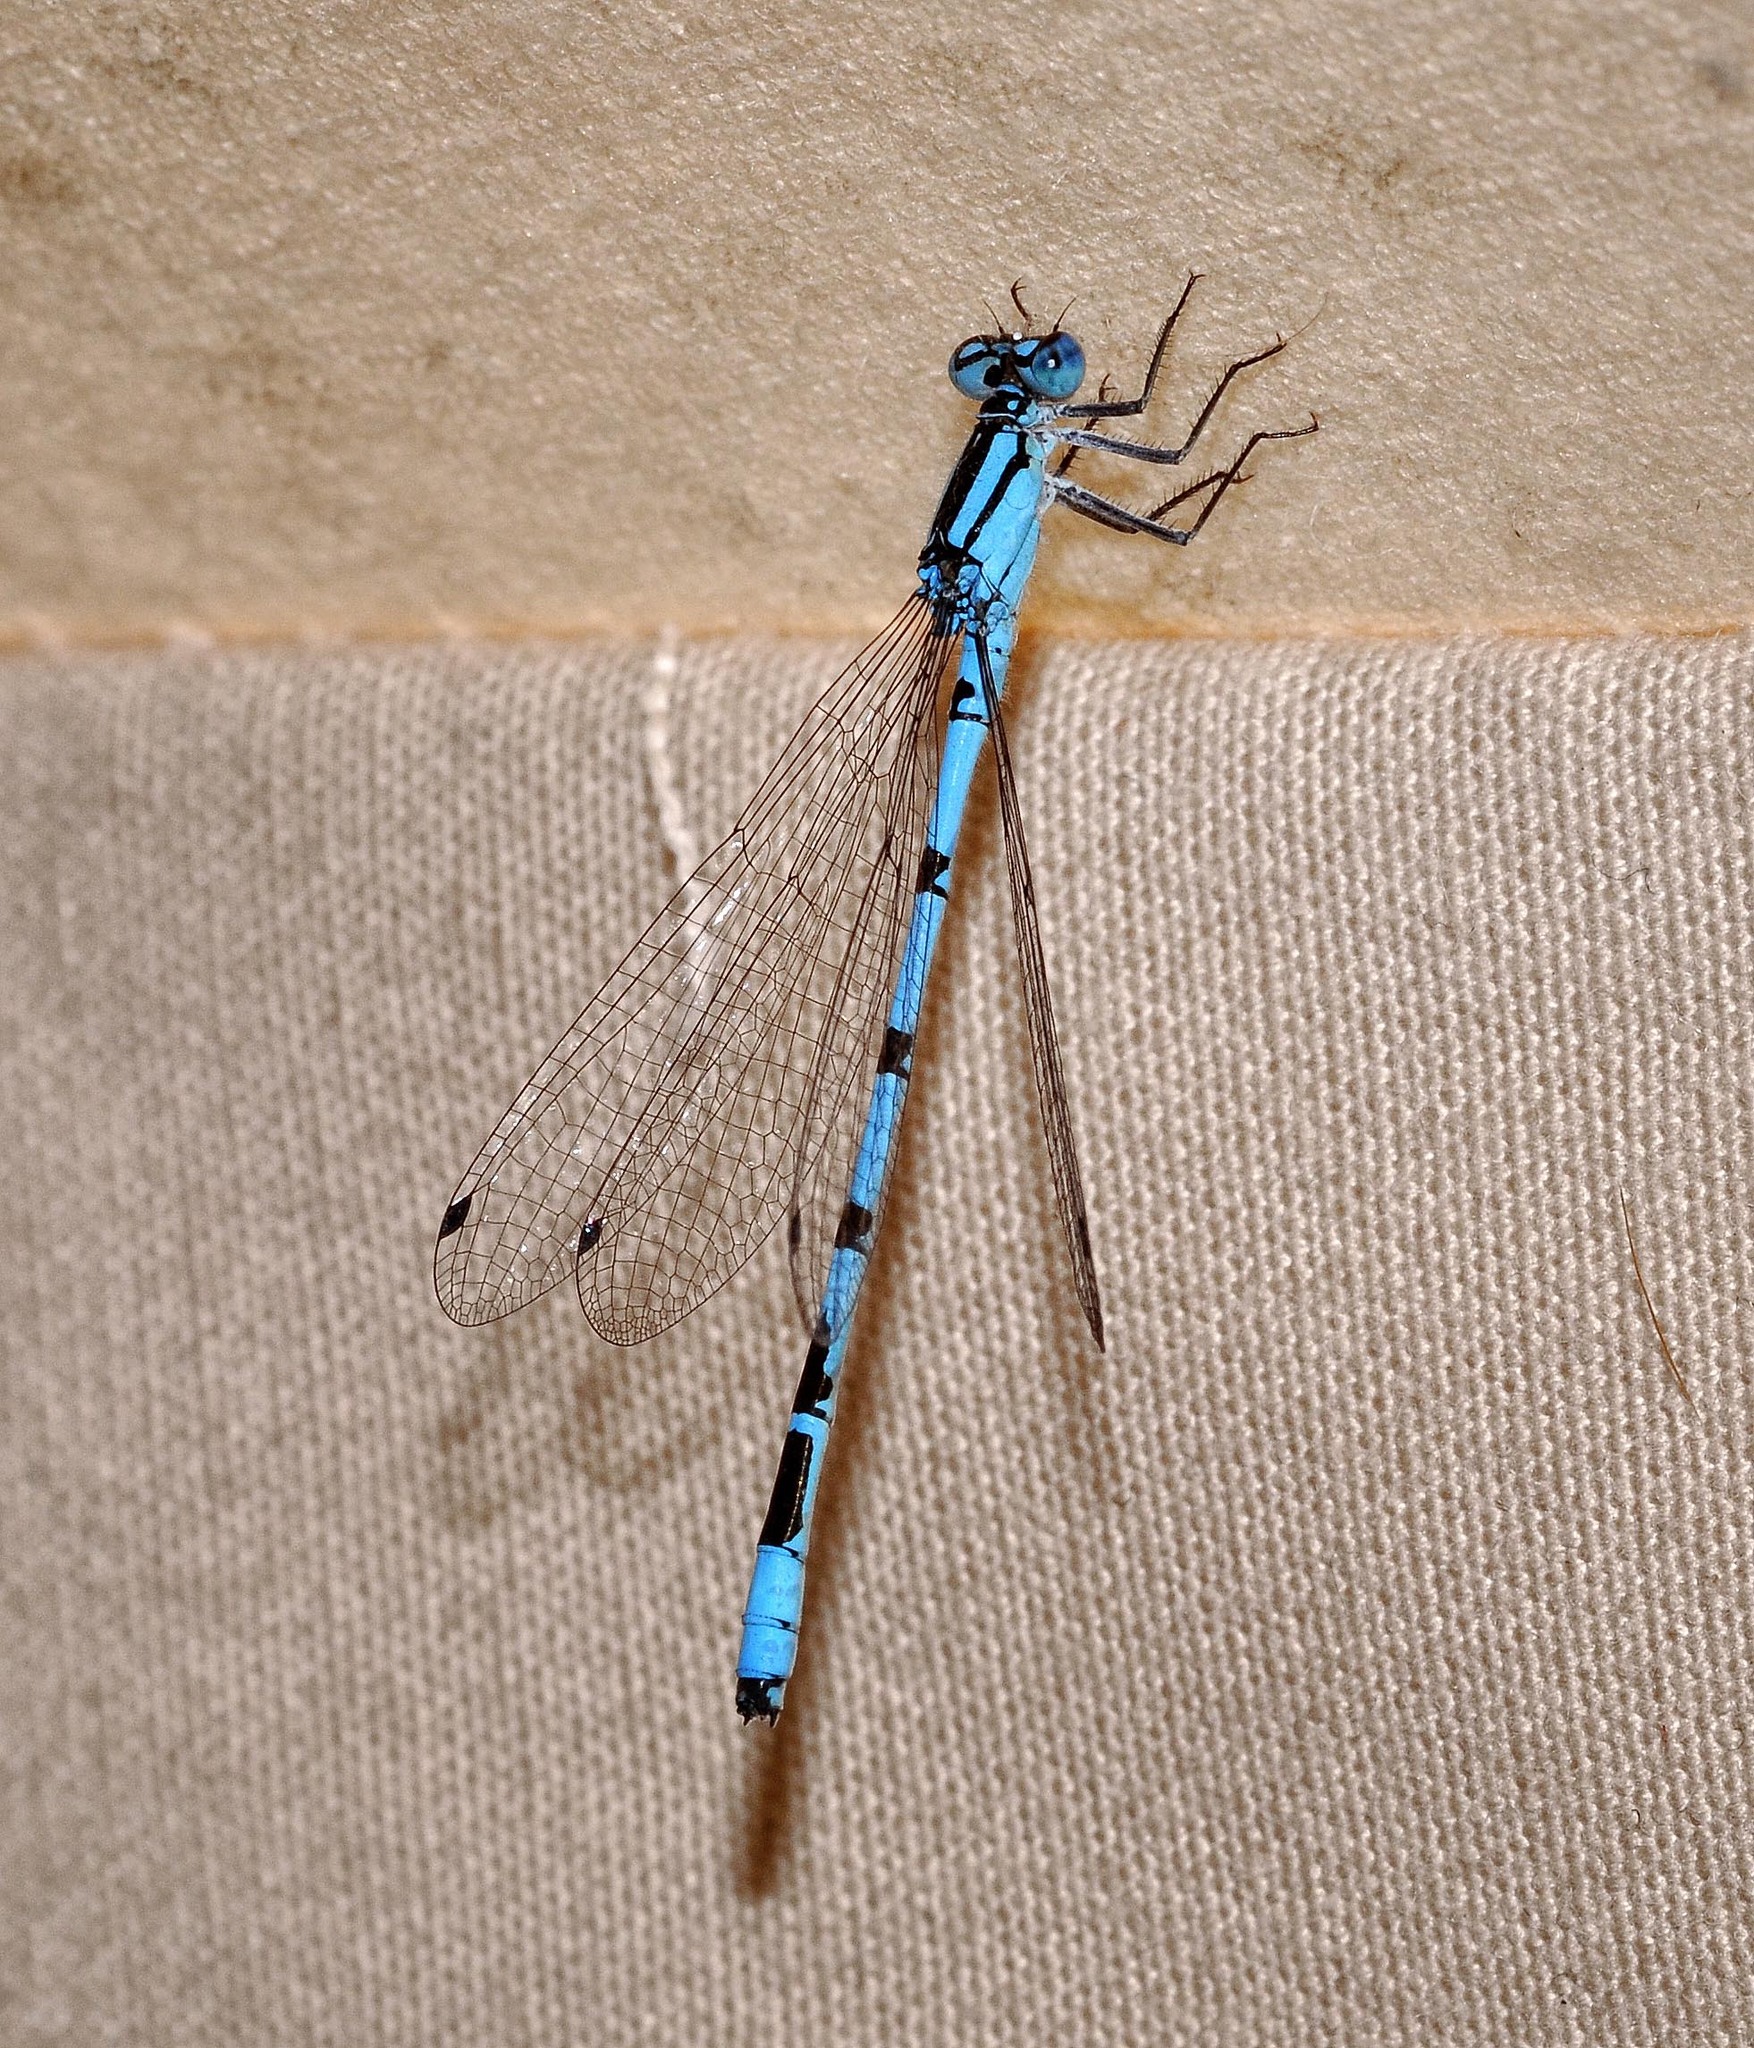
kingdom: Animalia
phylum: Arthropoda
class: Insecta
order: Odonata
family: Coenagrionidae
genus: Enallagma
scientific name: Enallagma cyathigerum
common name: Common blue damselfly
